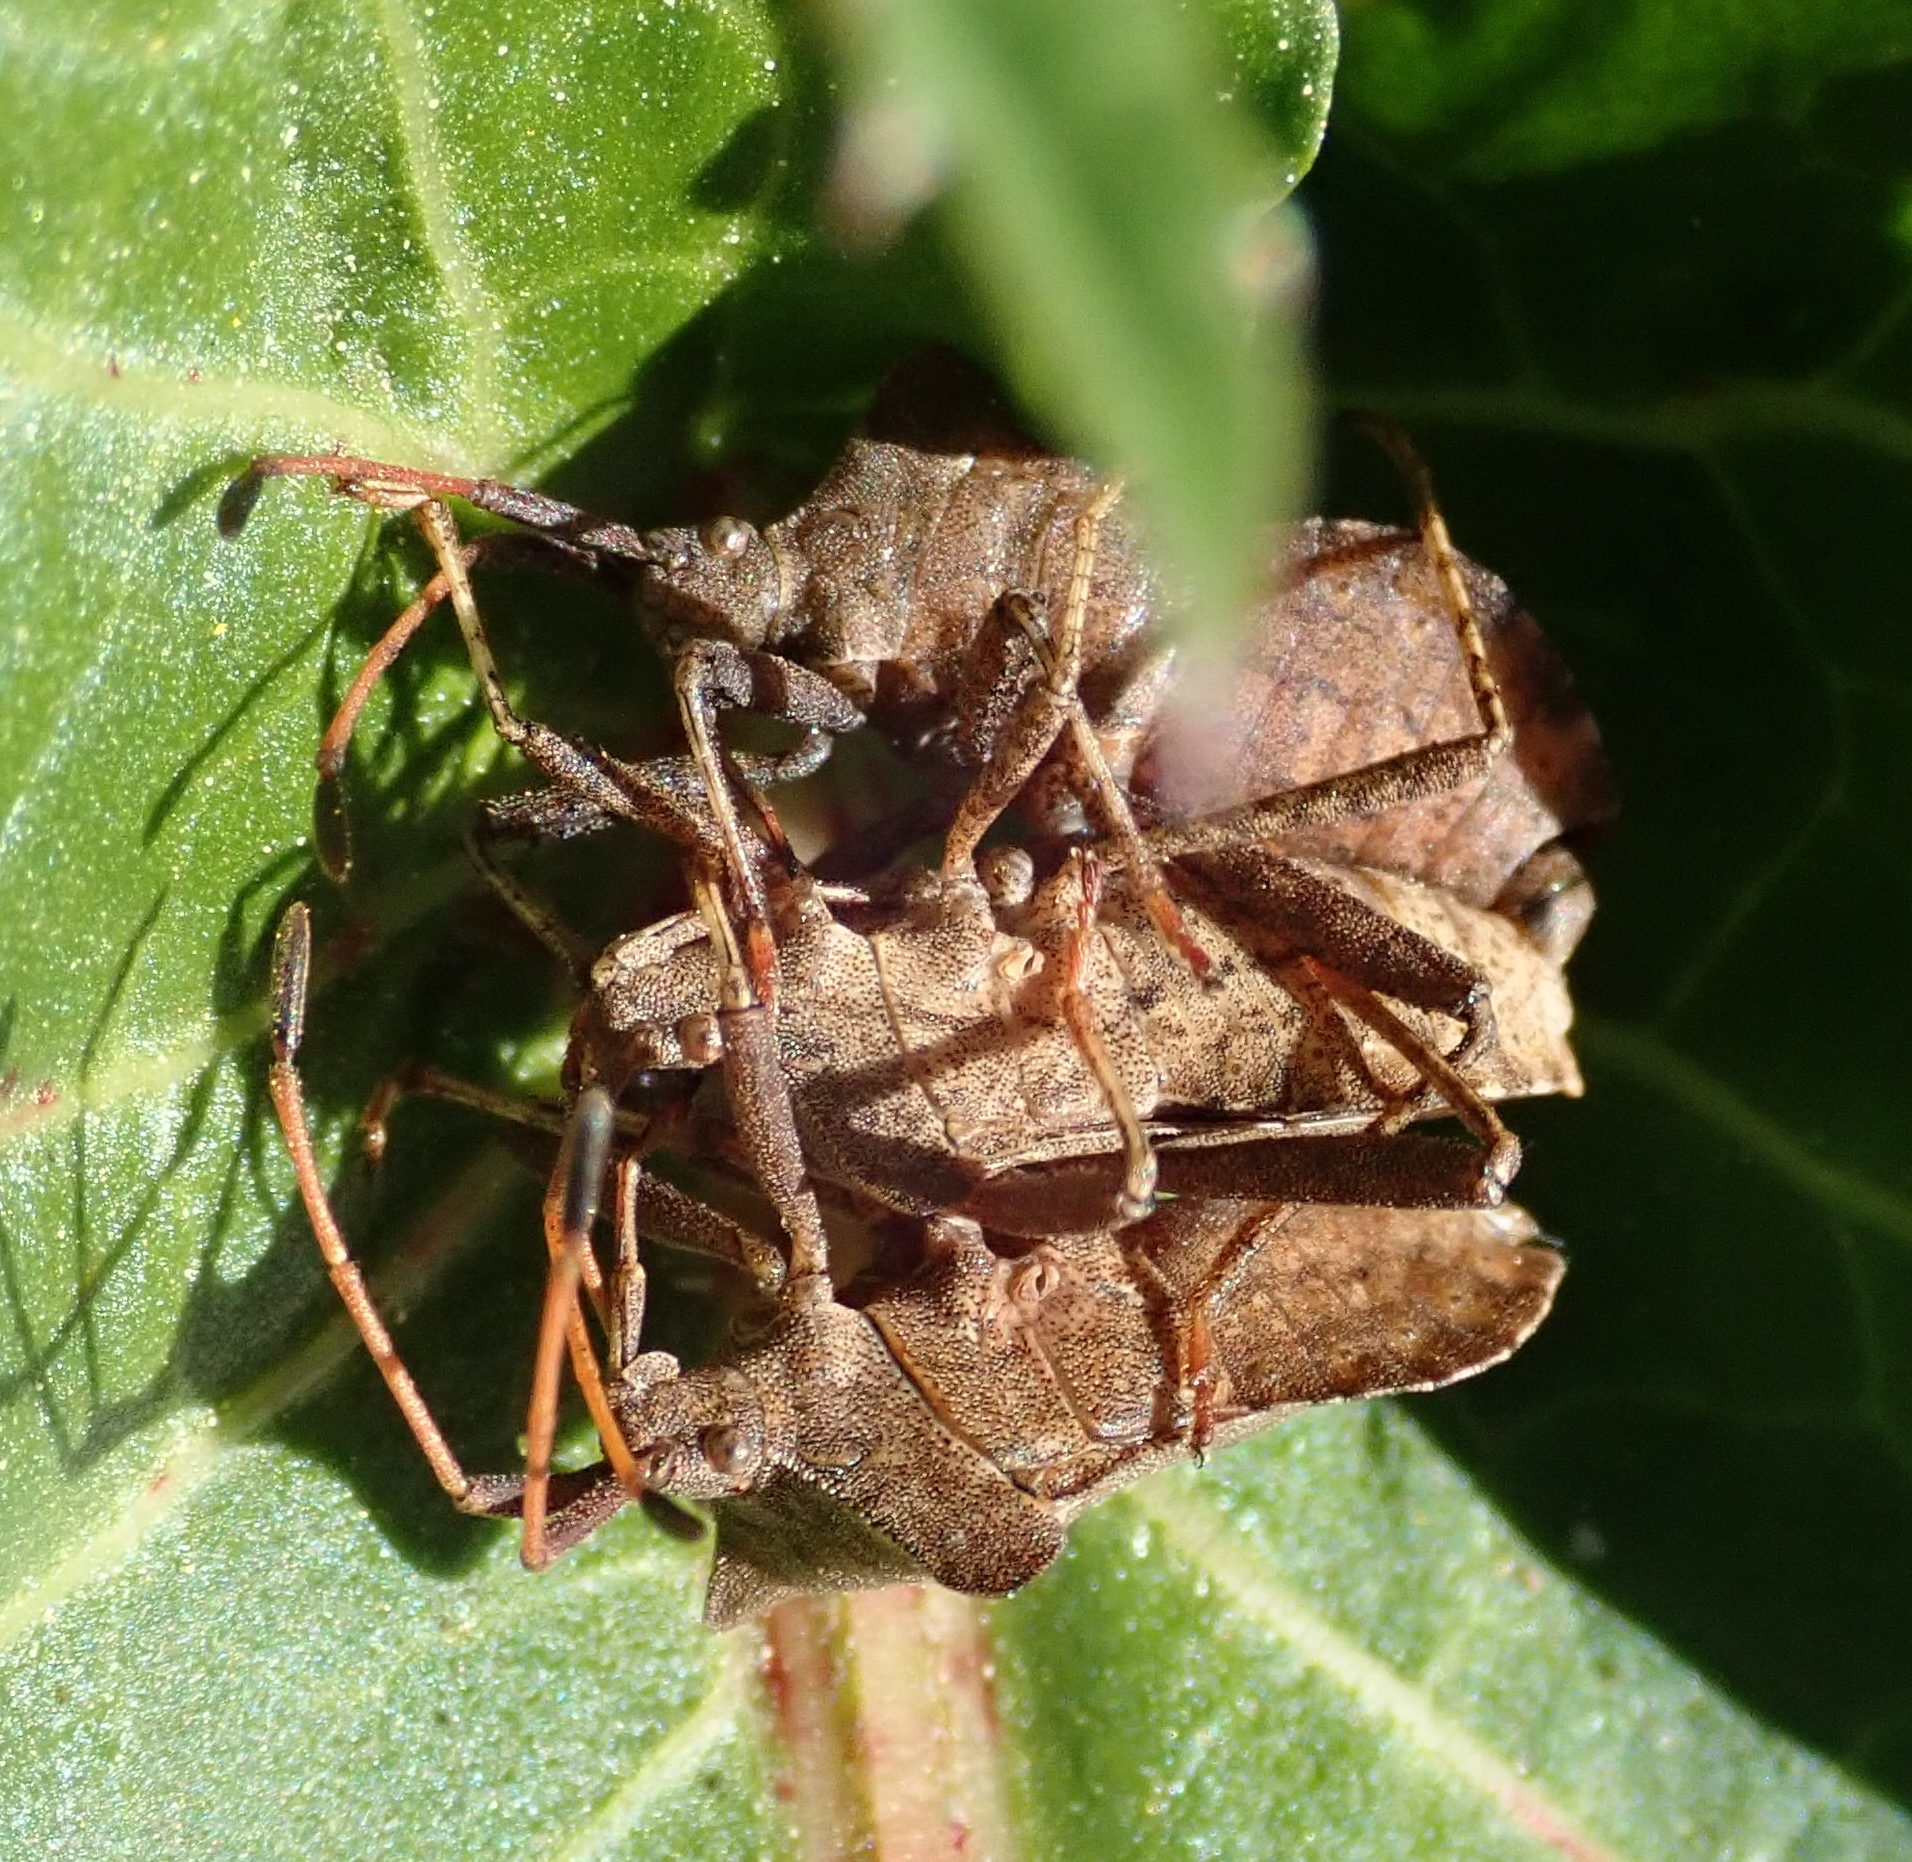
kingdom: Animalia
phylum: Arthropoda
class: Insecta
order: Hemiptera
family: Coreidae
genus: Coreus
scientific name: Coreus marginatus
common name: Dock bug
